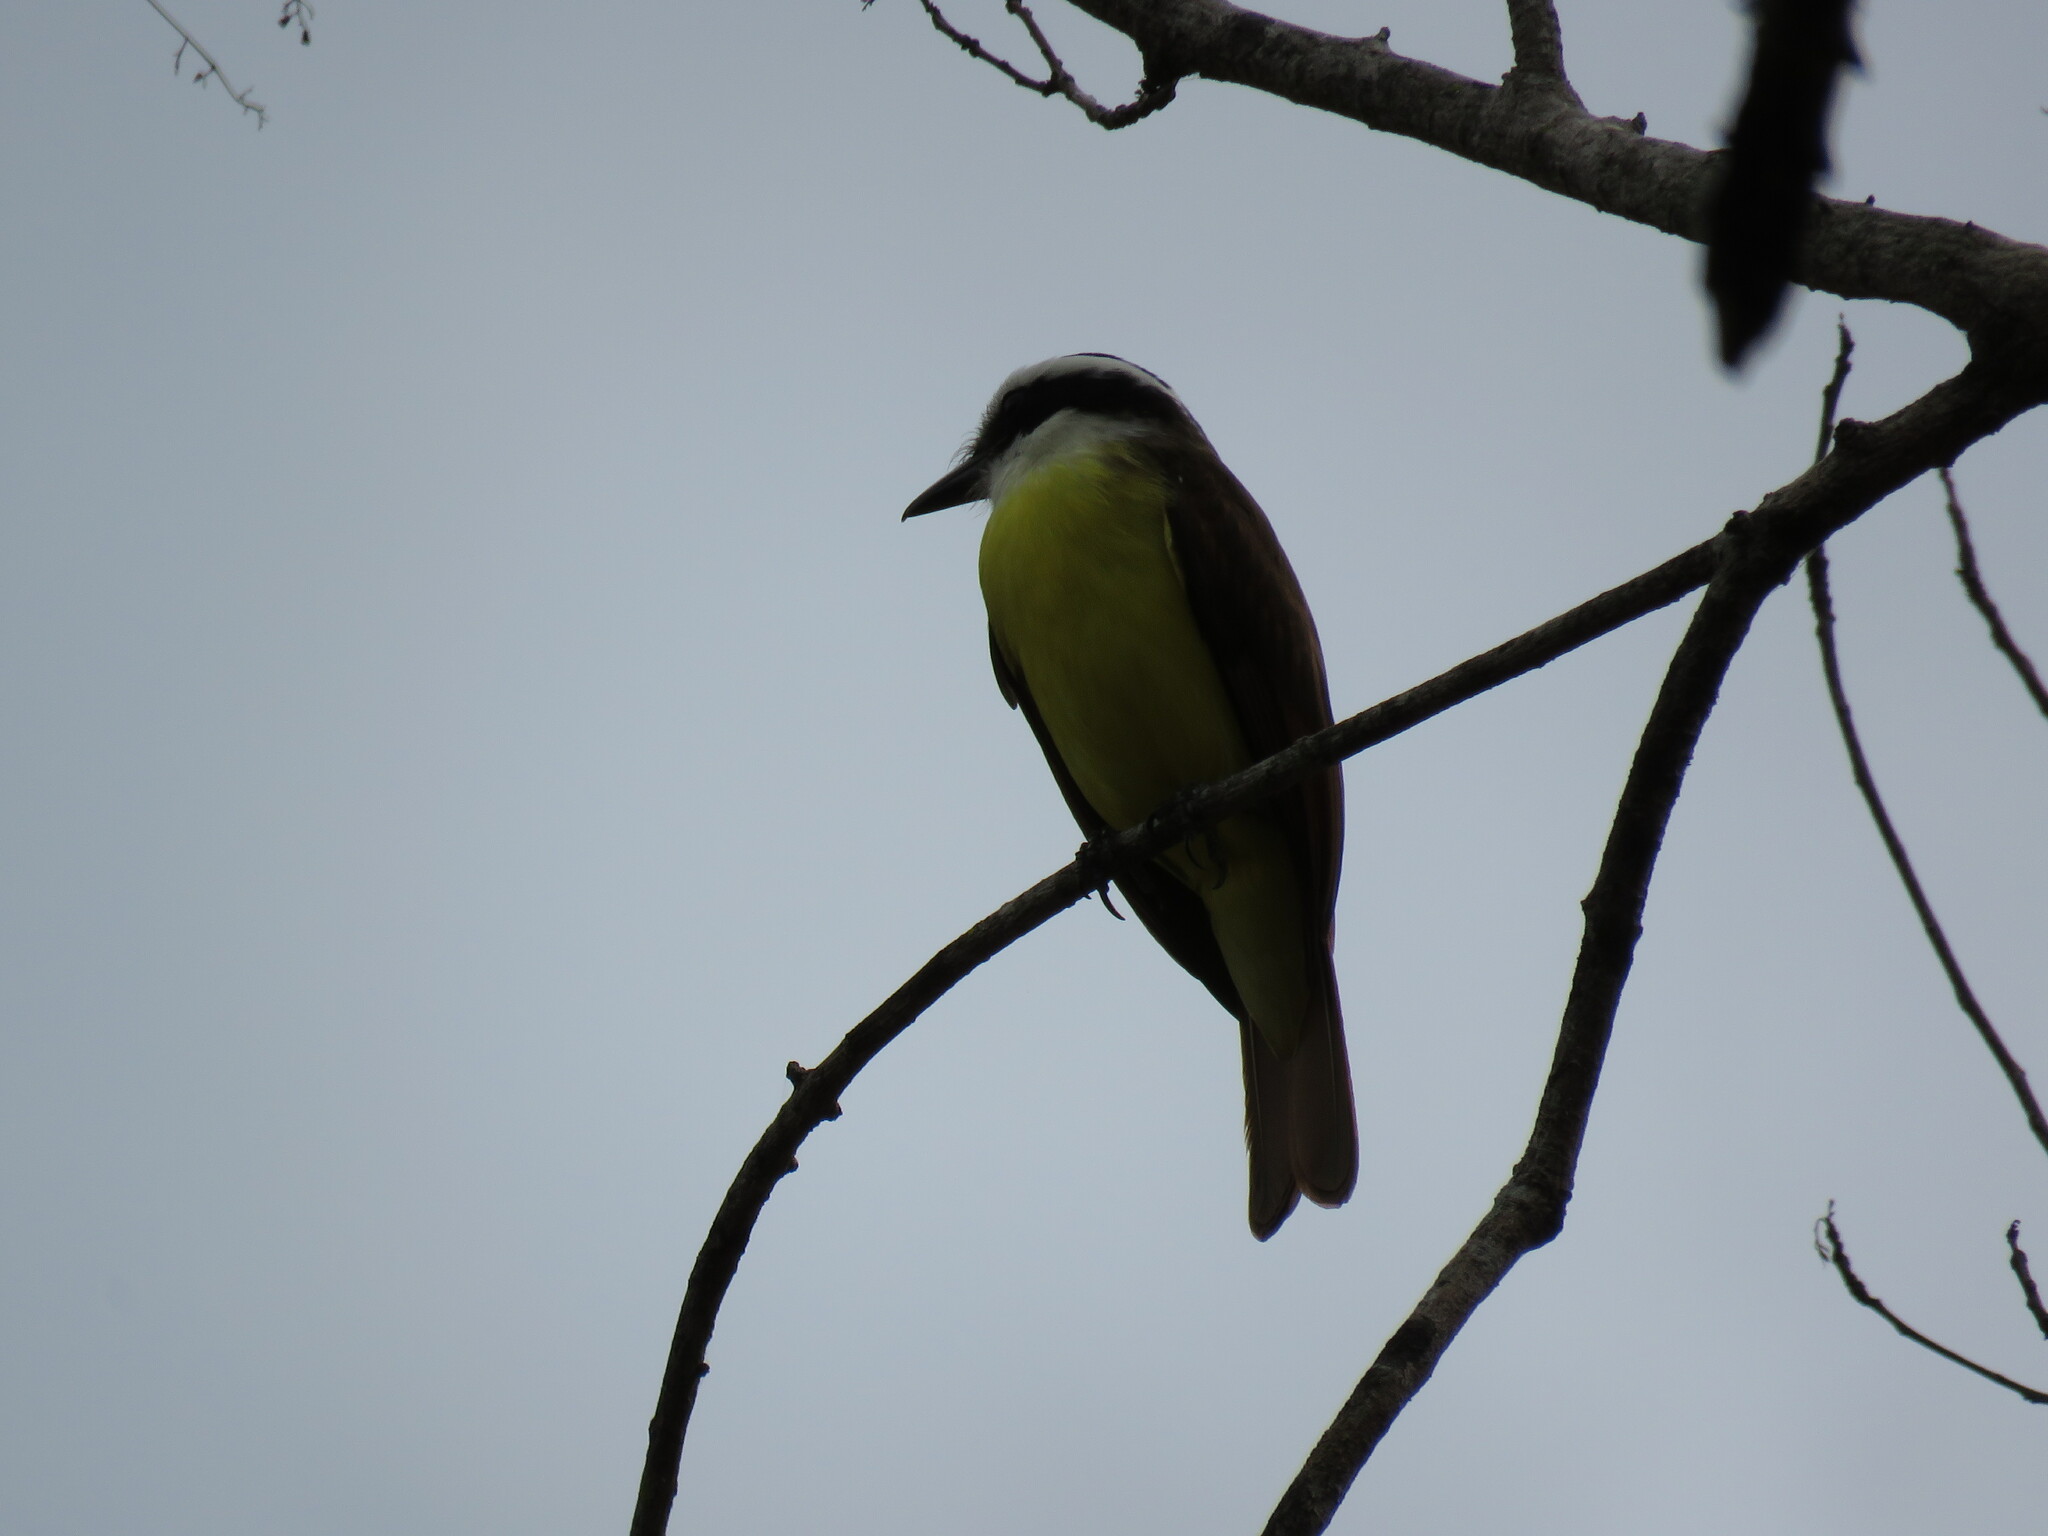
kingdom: Animalia
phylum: Chordata
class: Aves
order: Passeriformes
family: Tyrannidae
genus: Pitangus
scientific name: Pitangus sulphuratus
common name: Great kiskadee
